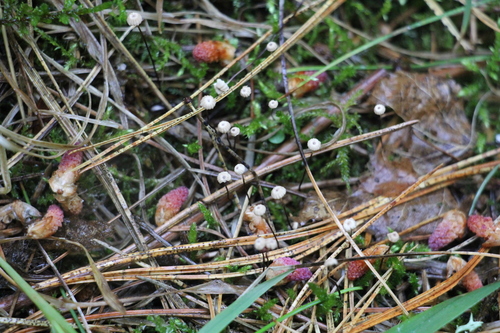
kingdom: Fungi
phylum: Basidiomycota
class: Agaricomycetes
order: Agaricales
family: Marasmiaceae
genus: Marasmius
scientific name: Marasmius rotula
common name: Collared parachute
